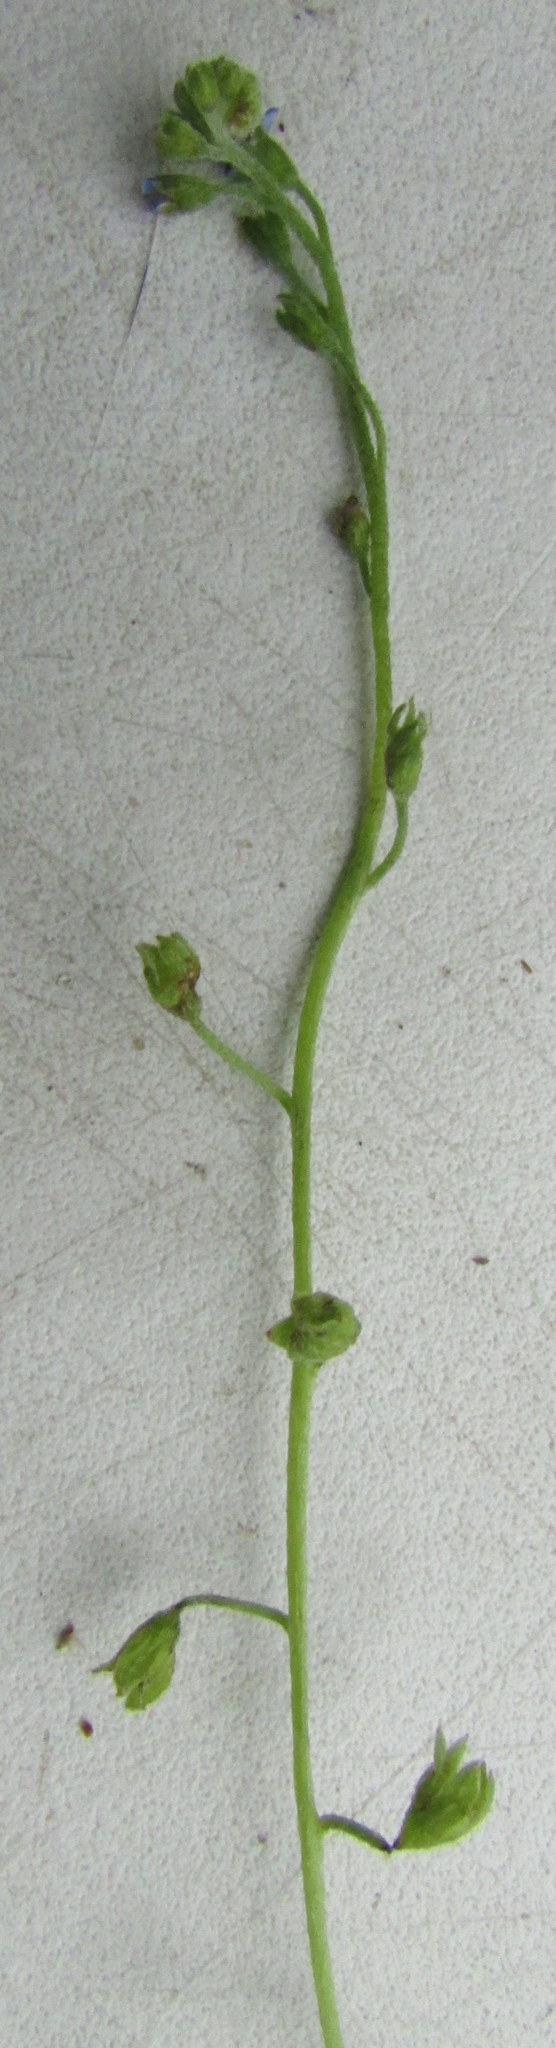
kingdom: Plantae
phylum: Tracheophyta
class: Magnoliopsida
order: Boraginales
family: Boraginaceae
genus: Myosotis
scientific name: Myosotis laxa
